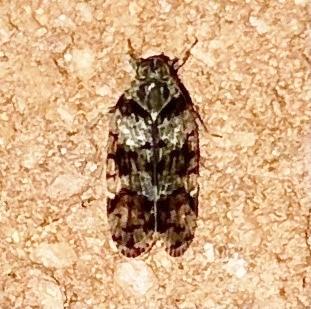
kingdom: Animalia
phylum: Arthropoda
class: Insecta
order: Hemiptera
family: Cixiidae
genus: Melanoliarus
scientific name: Melanoliarus placitus
